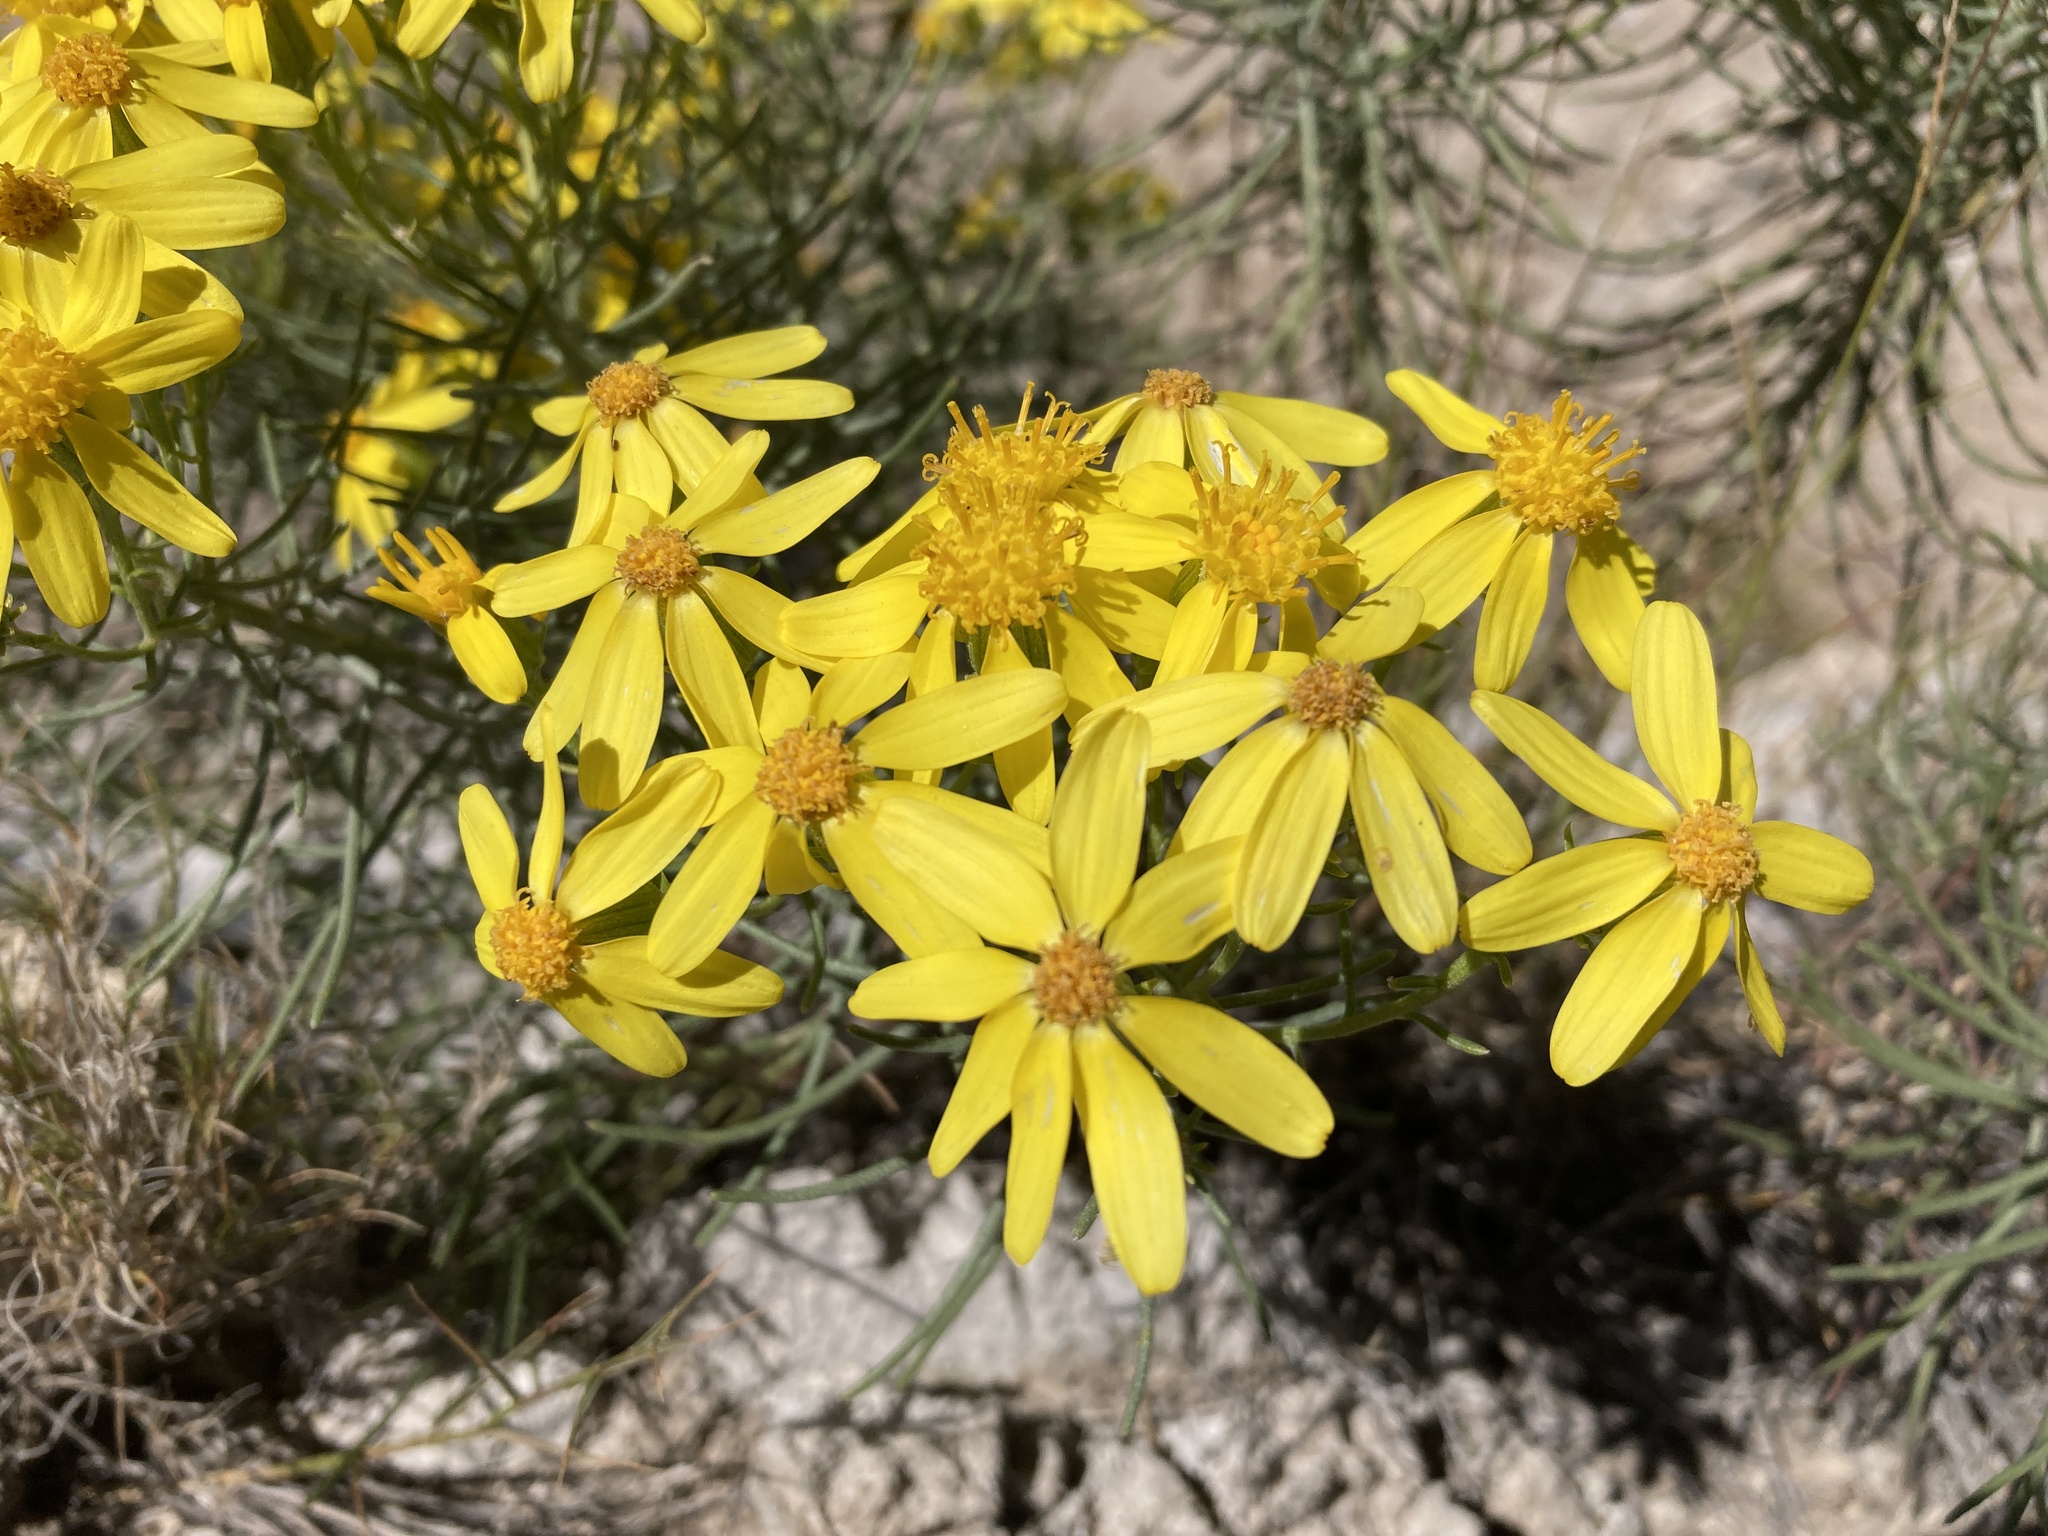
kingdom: Plantae
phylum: Tracheophyta
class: Magnoliopsida
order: Asterales
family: Asteraceae
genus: Senecio
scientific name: Senecio warnockii
